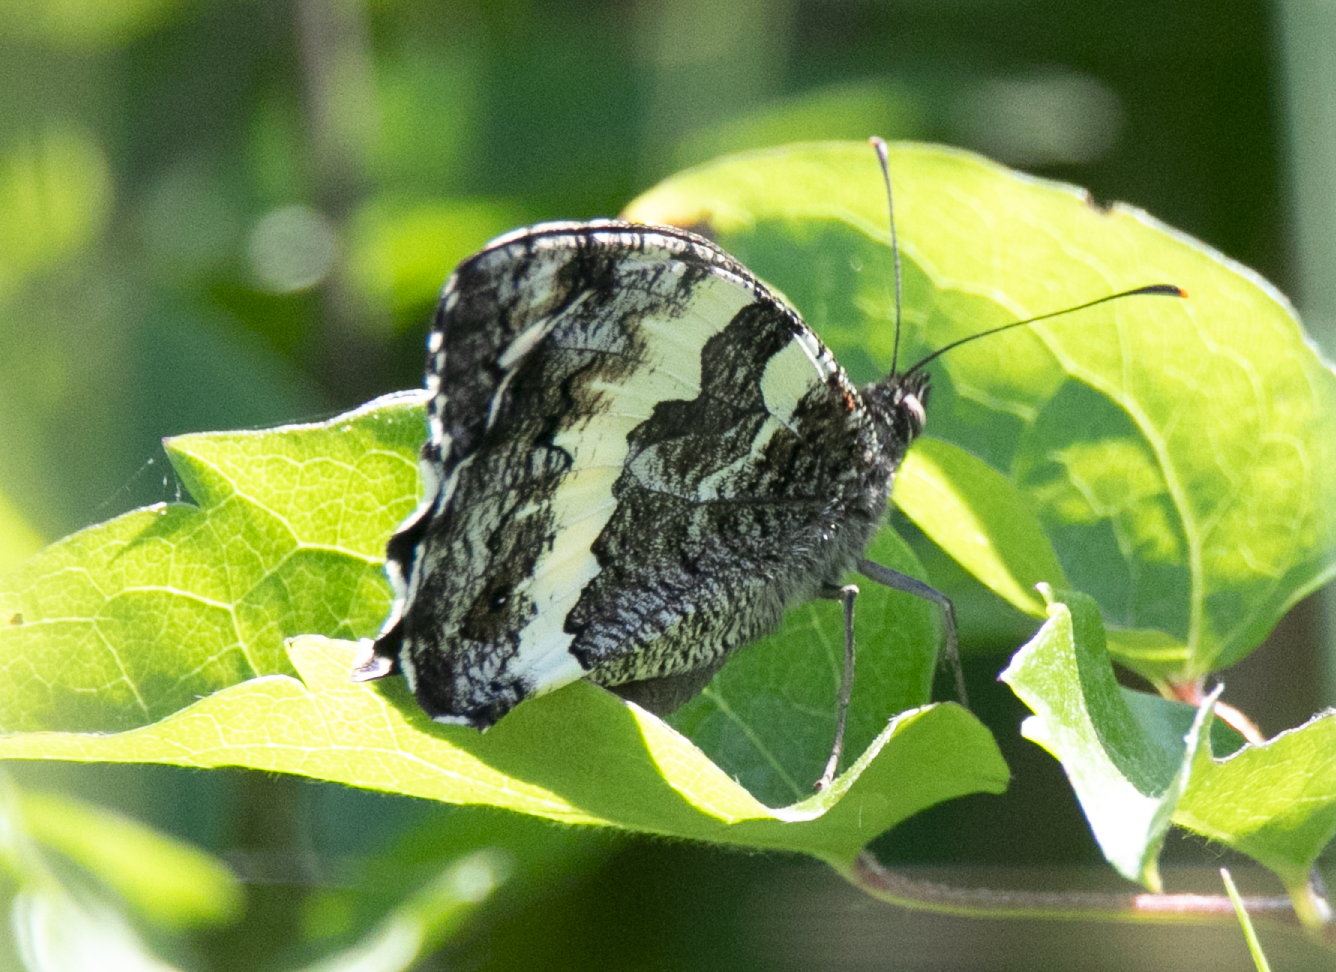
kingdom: Animalia
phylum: Arthropoda
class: Insecta
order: Lepidoptera
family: Lycaenidae
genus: Loweia
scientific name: Loweia tityrus
